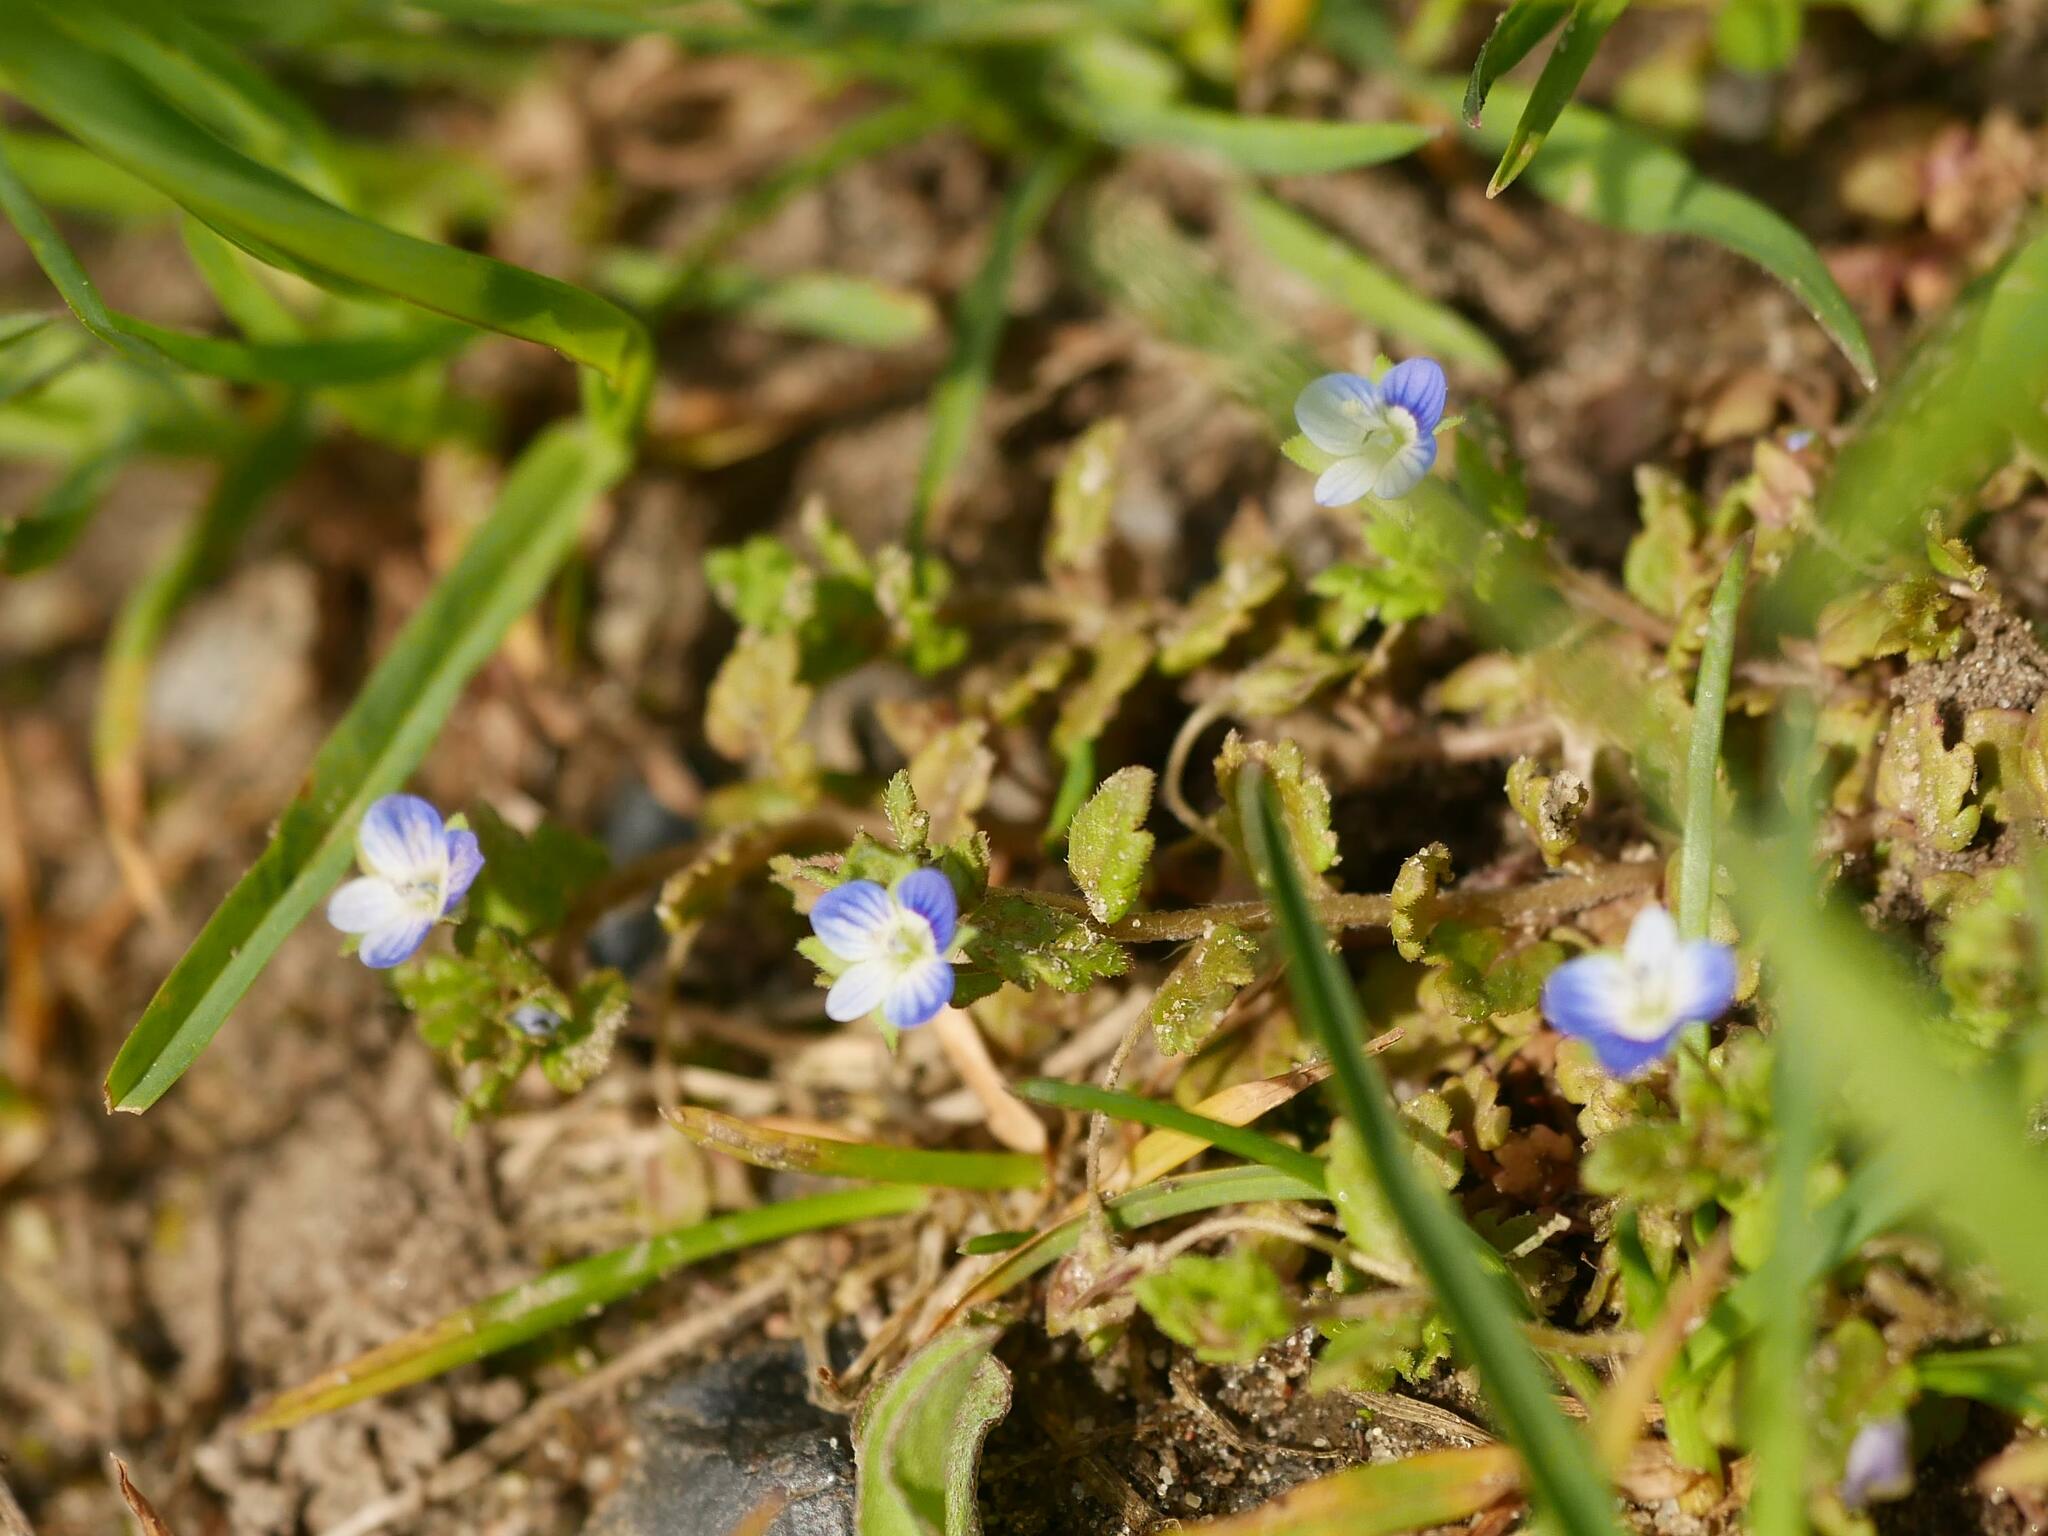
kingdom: Plantae
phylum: Tracheophyta
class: Magnoliopsida
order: Lamiales
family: Plantaginaceae
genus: Veronica
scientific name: Veronica persica
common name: Common field-speedwell
